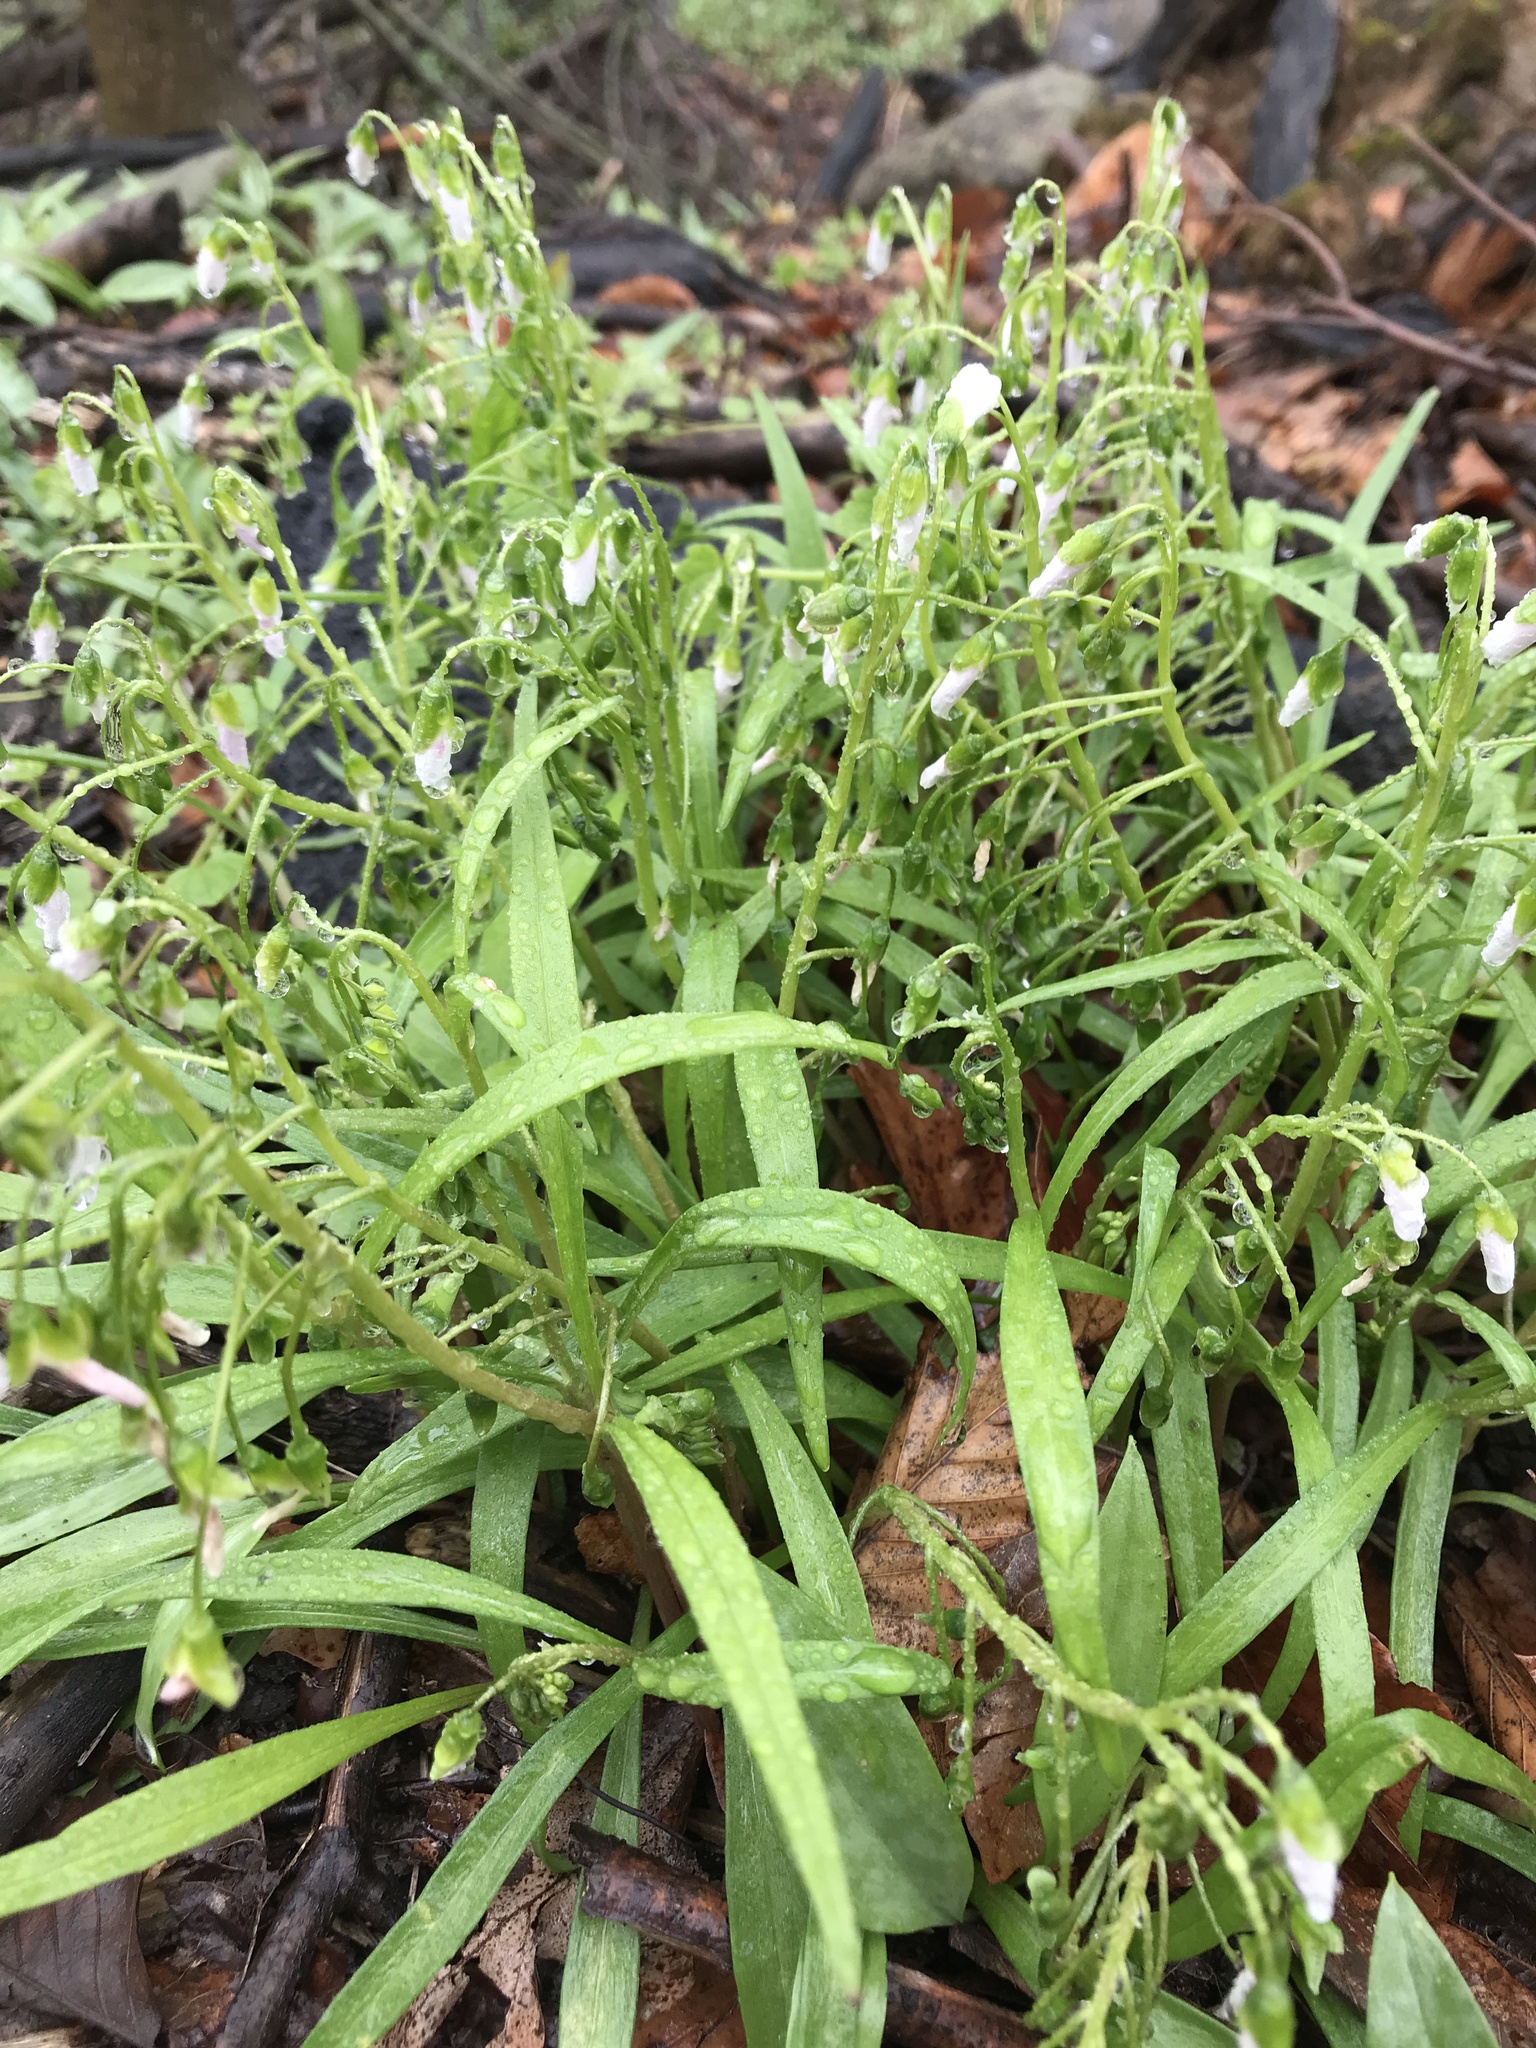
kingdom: Plantae
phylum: Tracheophyta
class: Magnoliopsida
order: Caryophyllales
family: Montiaceae
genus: Claytonia
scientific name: Claytonia virginica
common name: Virginia springbeauty
